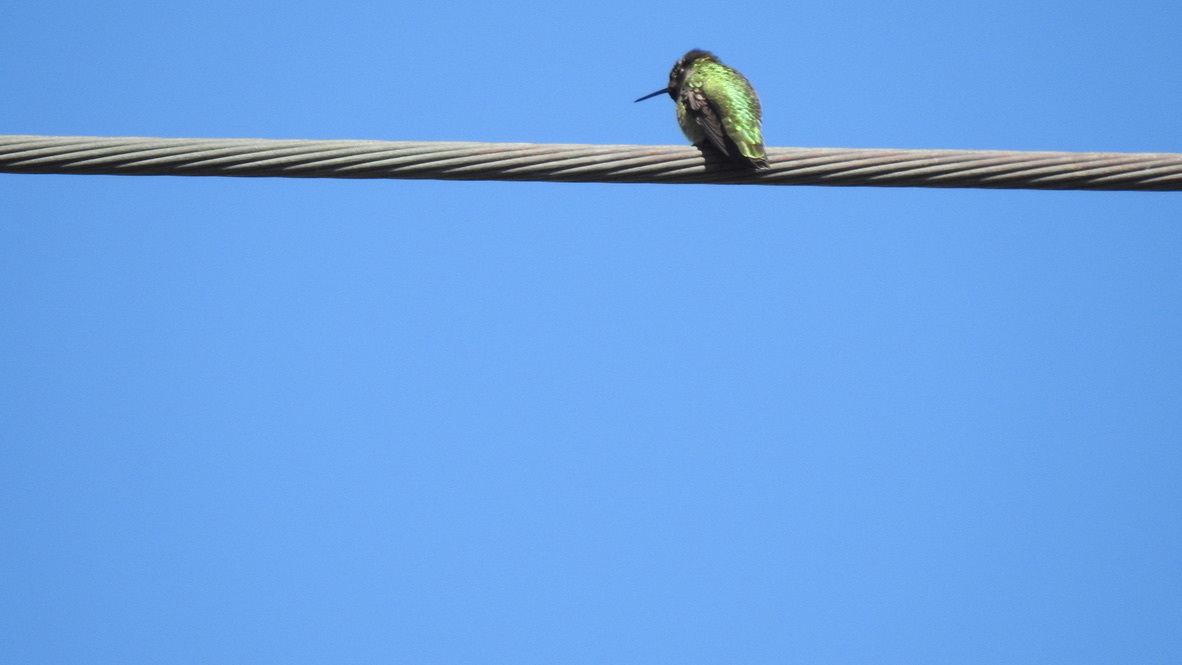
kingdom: Animalia
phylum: Chordata
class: Aves
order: Apodiformes
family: Trochilidae
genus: Calypte
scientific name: Calypte anna
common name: Anna's hummingbird
